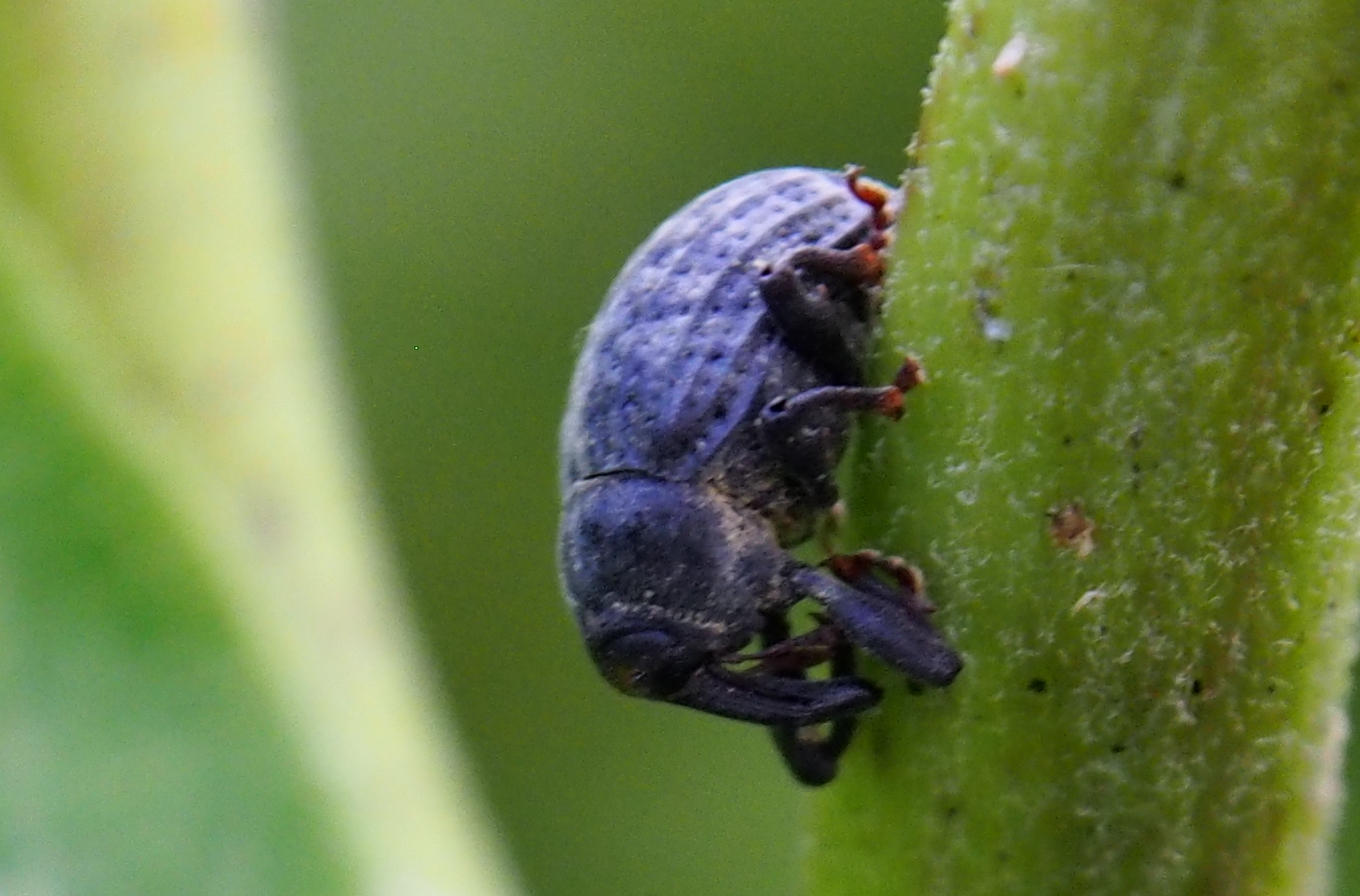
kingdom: Animalia
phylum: Arthropoda
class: Insecta
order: Coleoptera
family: Curculionidae
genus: Rhyssomatus
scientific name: Rhyssomatus lineaticollis
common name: Milkweed stem weevil
